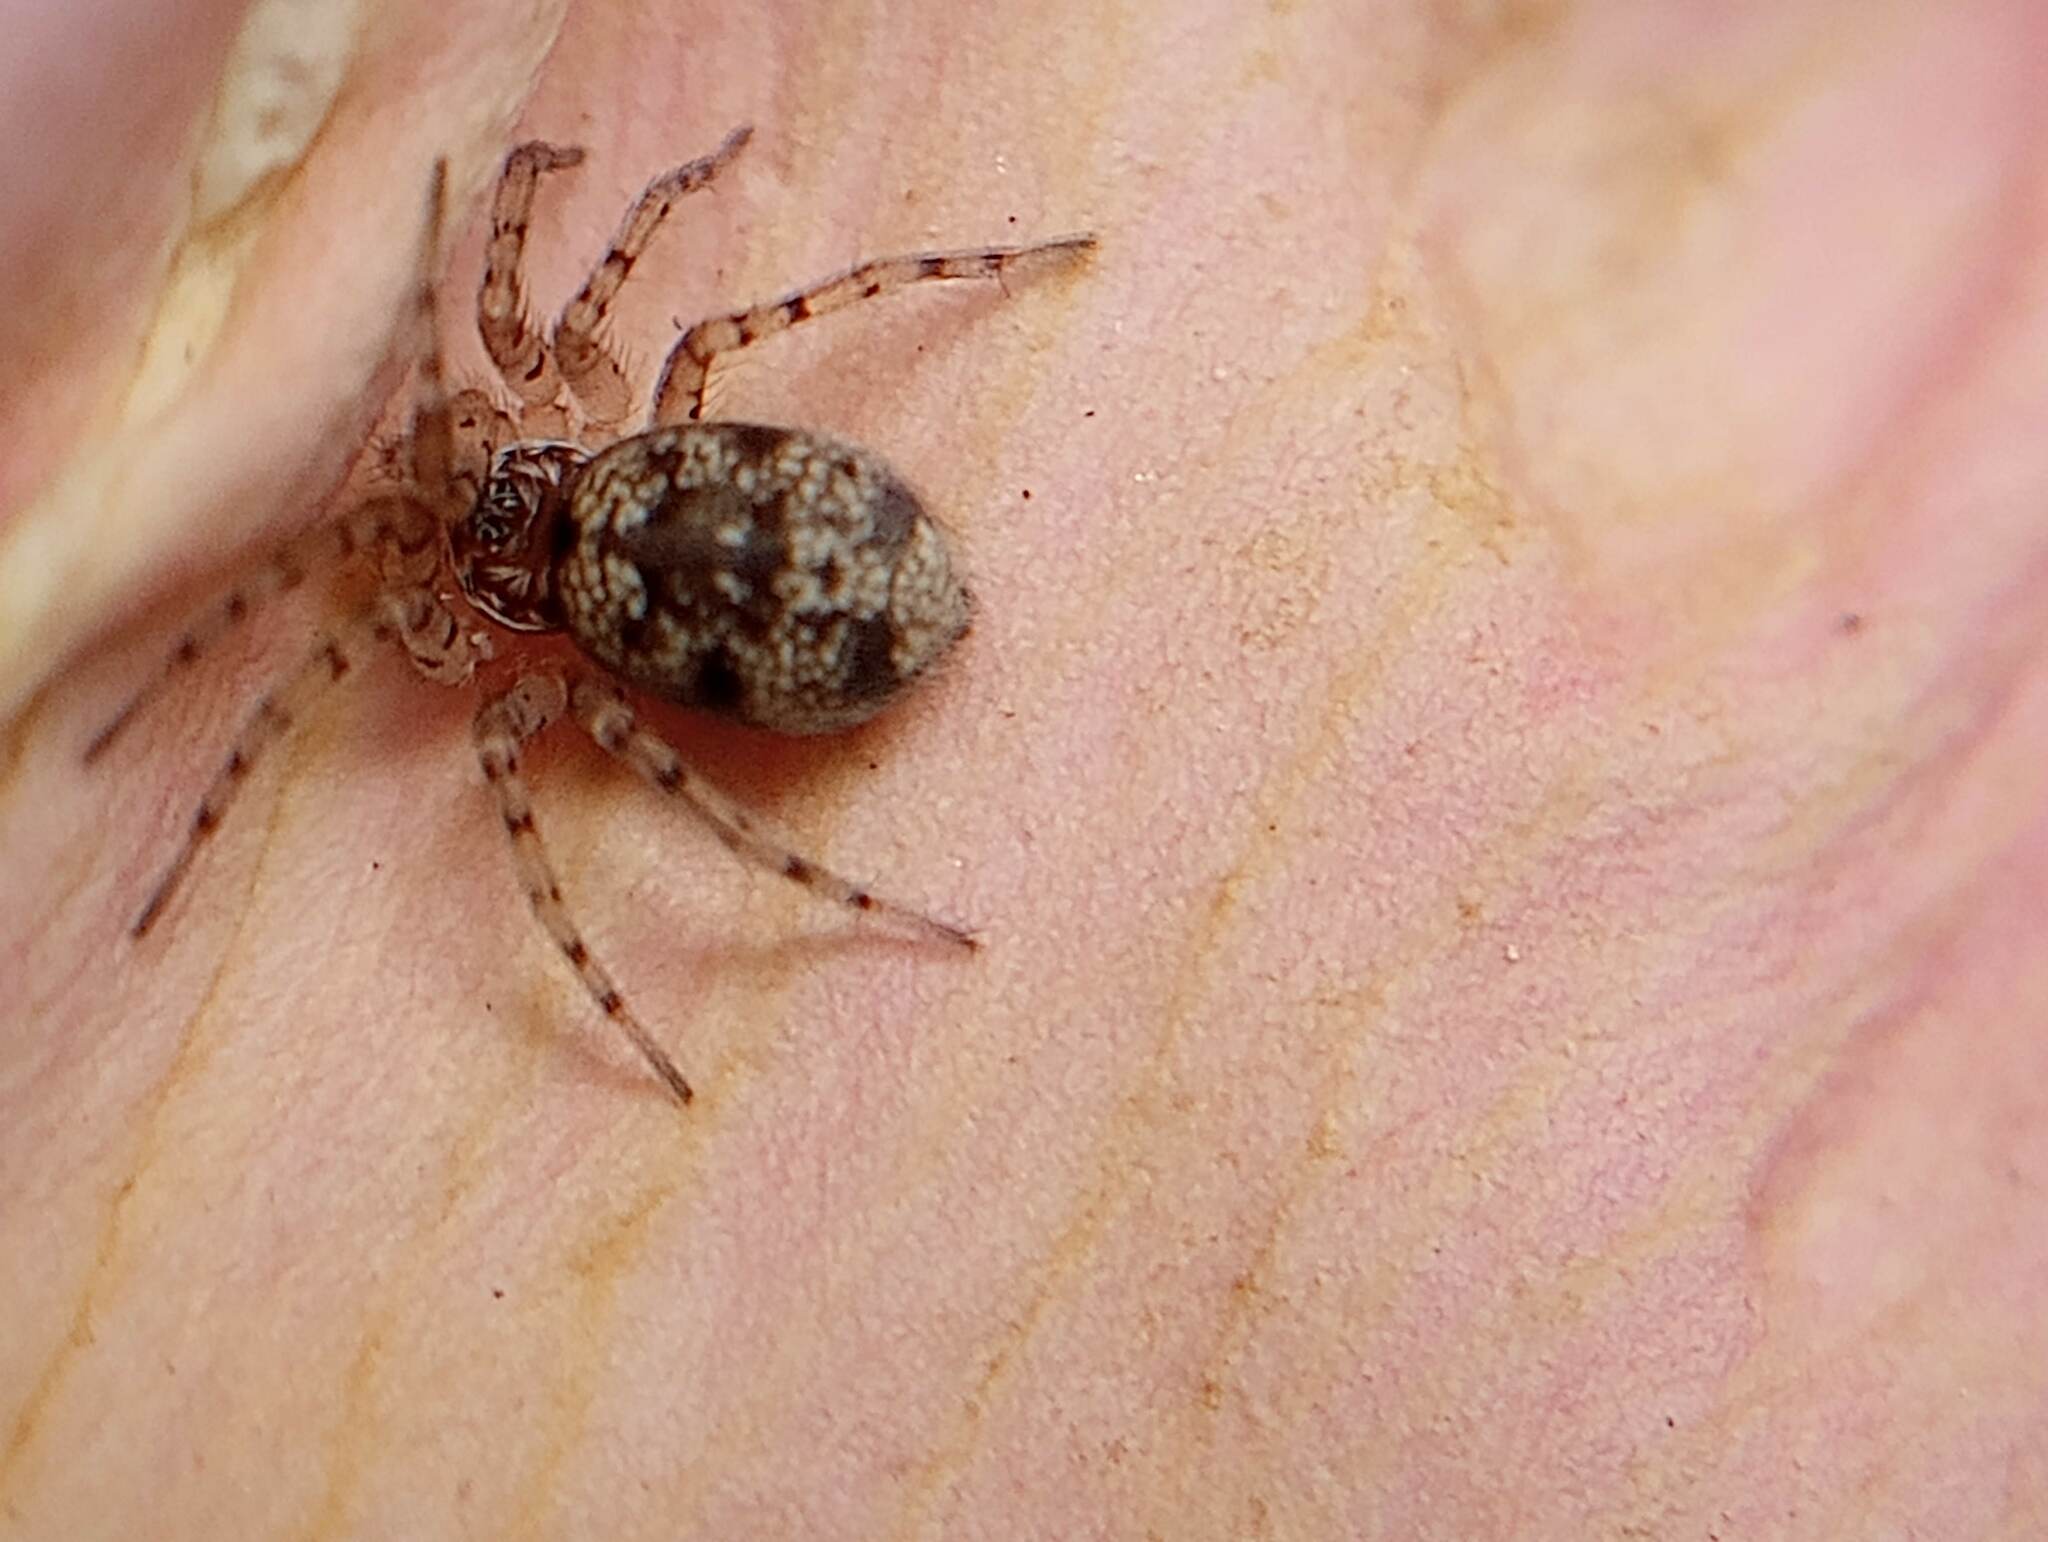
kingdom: Animalia
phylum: Arthropoda
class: Arachnida
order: Araneae
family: Oecobiidae
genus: Oecobius
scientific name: Oecobius
